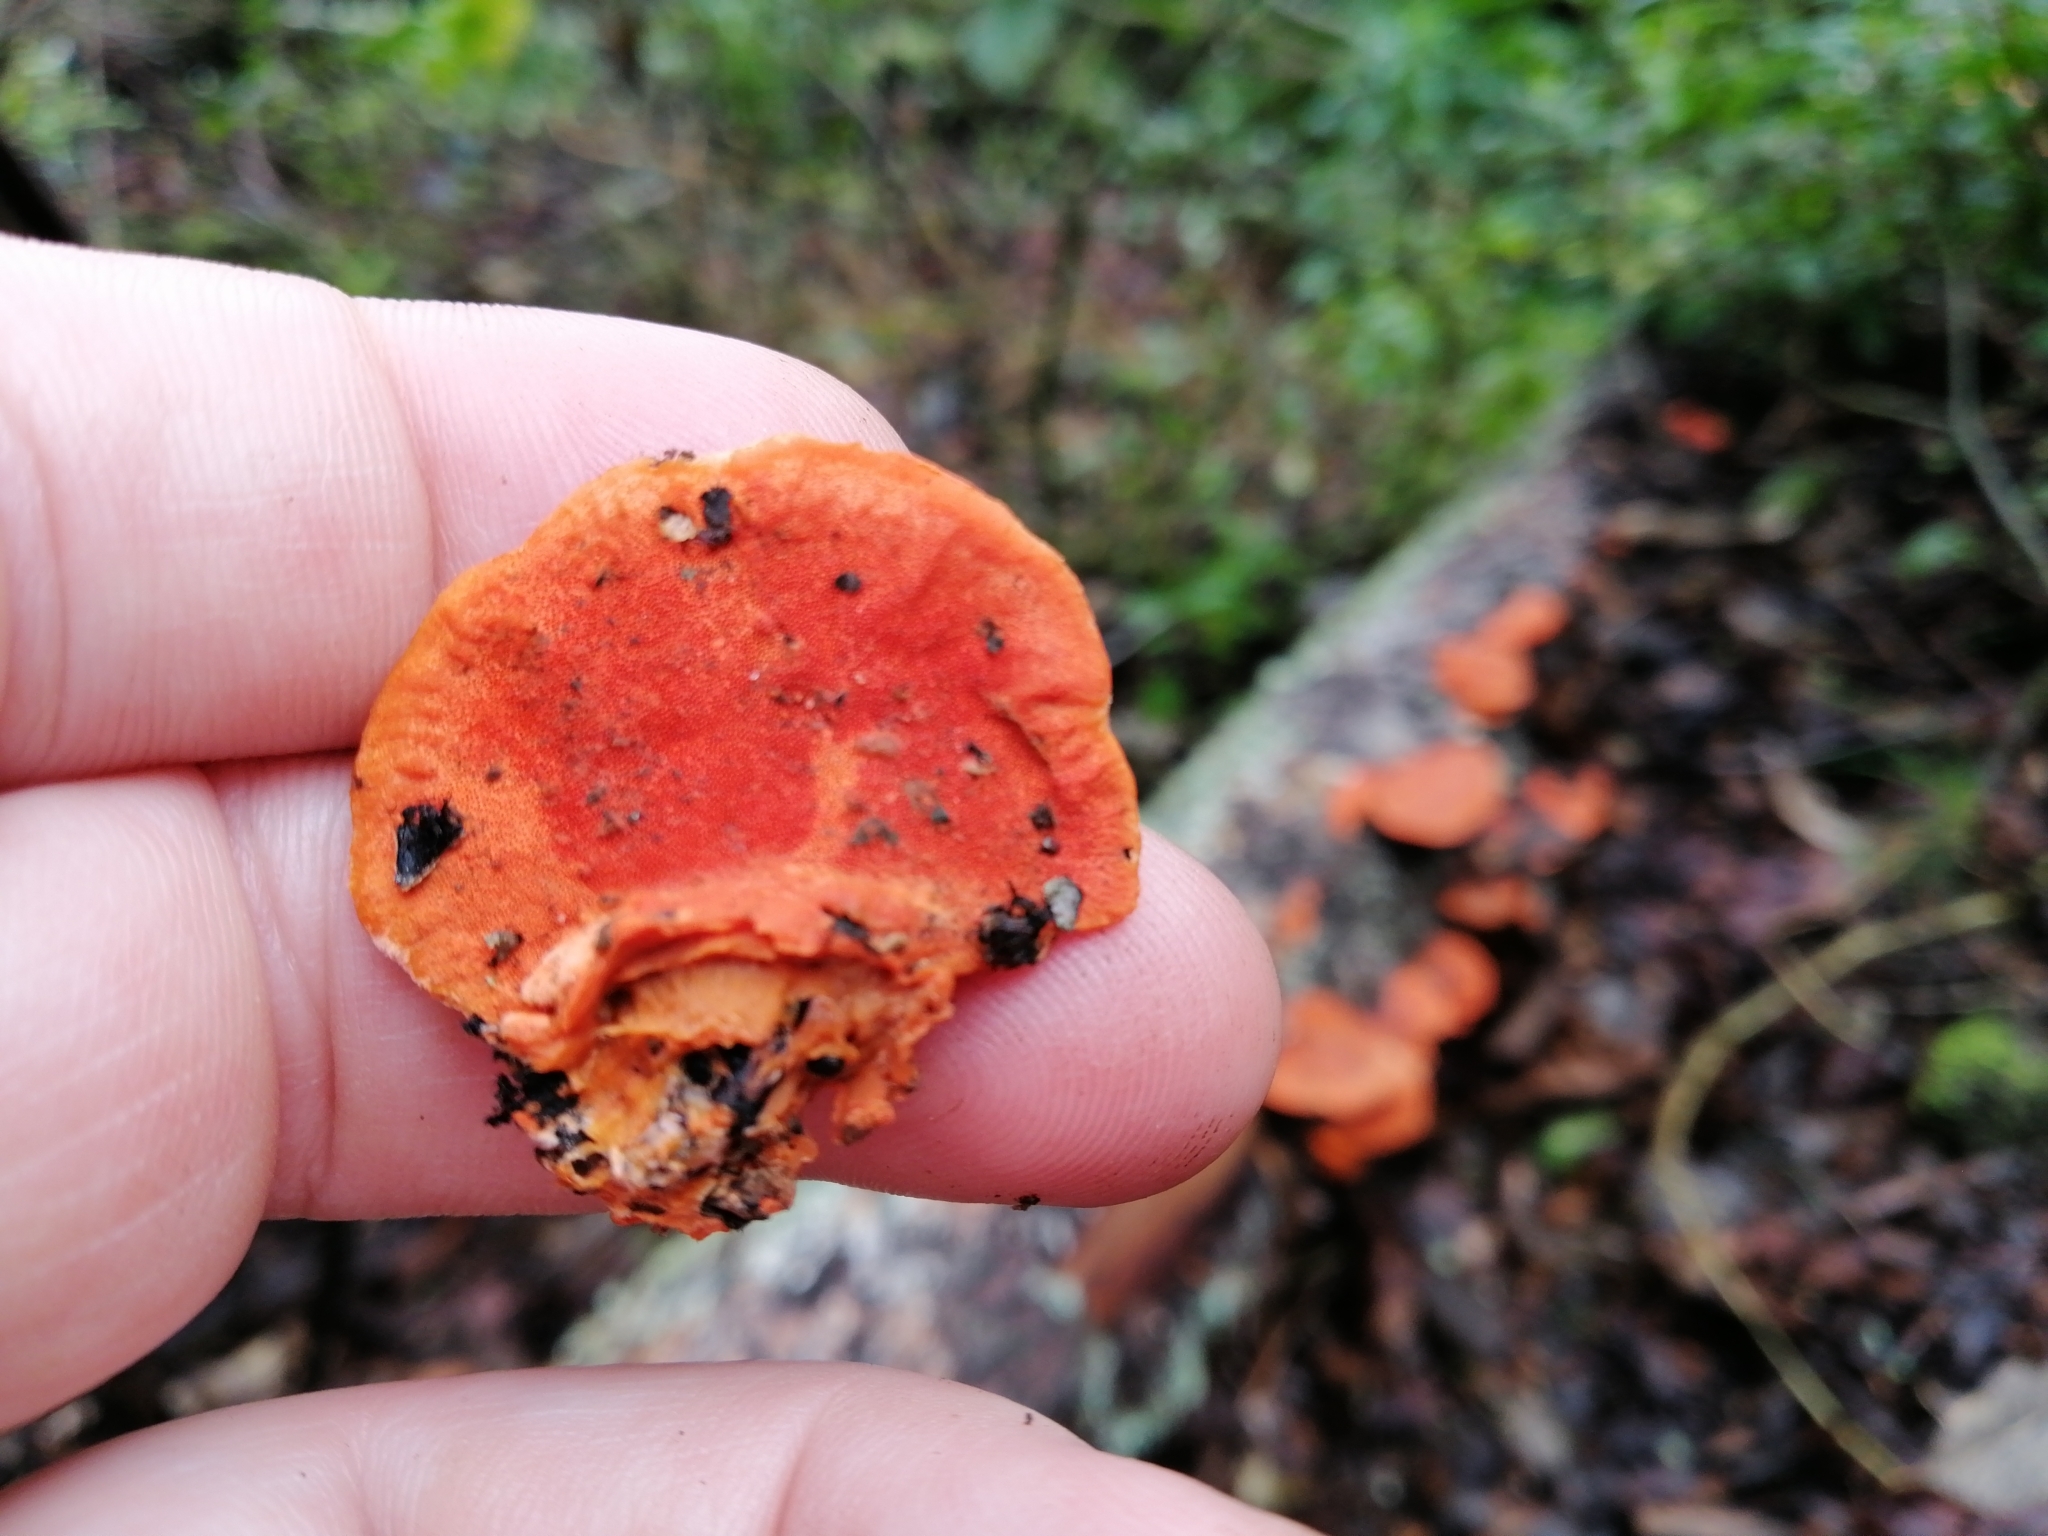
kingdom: Fungi
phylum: Basidiomycota
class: Agaricomycetes
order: Polyporales
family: Polyporaceae
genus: Trametes
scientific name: Trametes coccinea
